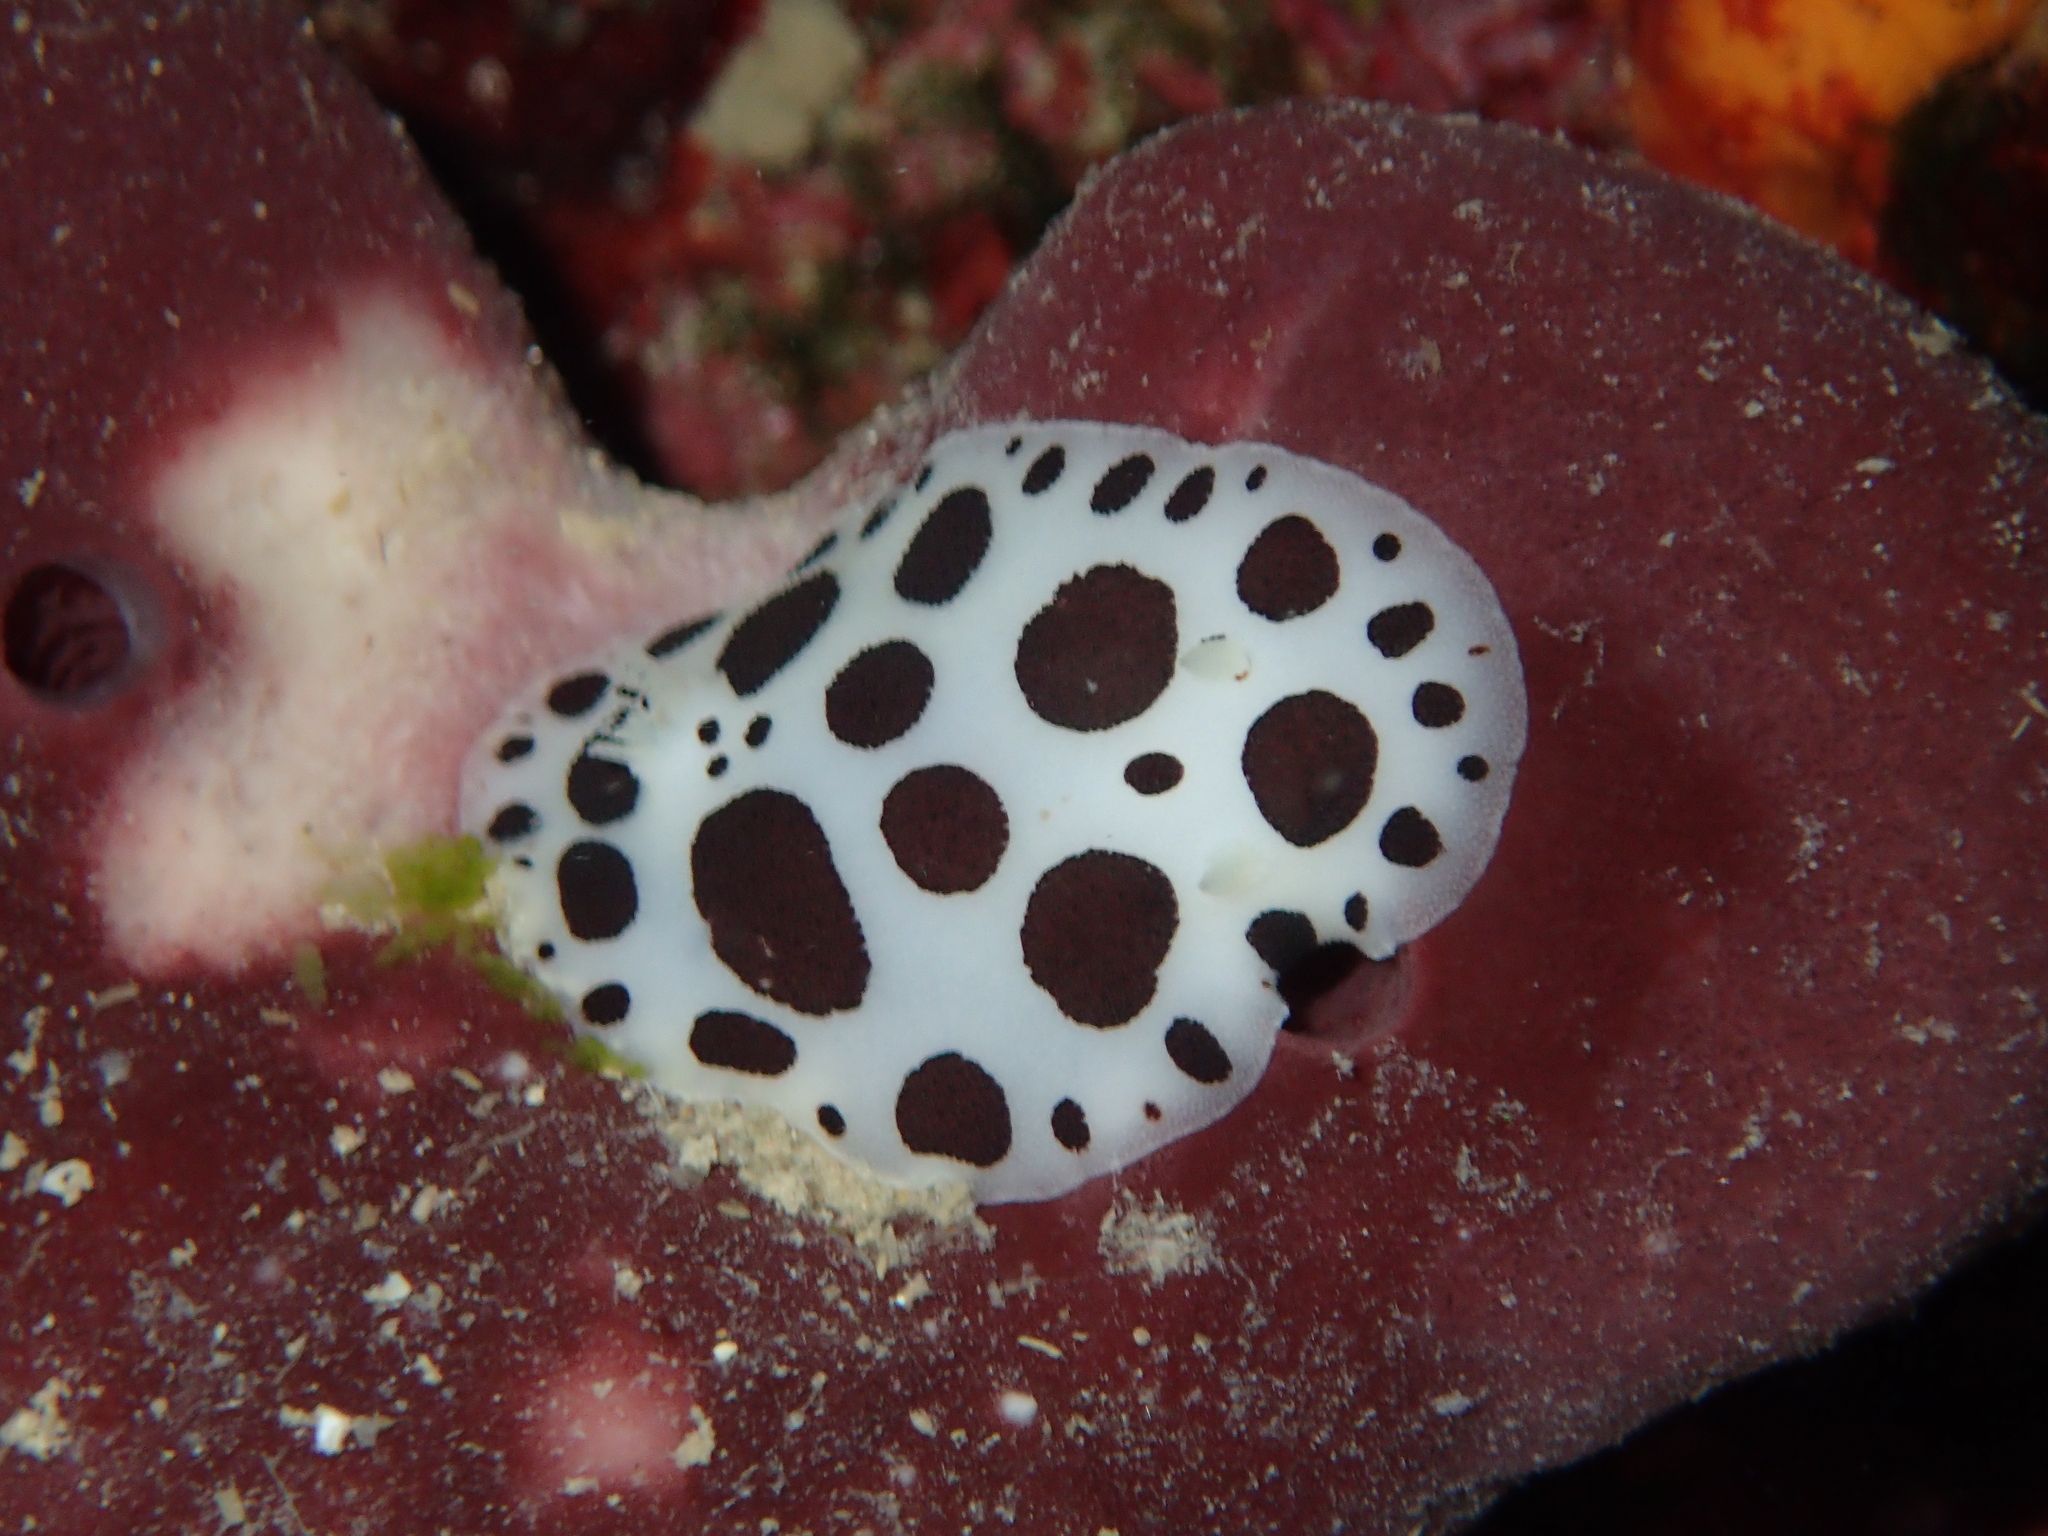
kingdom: Animalia
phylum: Mollusca
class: Gastropoda
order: Nudibranchia
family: Discodorididae
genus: Peltodoris
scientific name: Peltodoris atromaculata
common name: Swiss cow nudibranch
